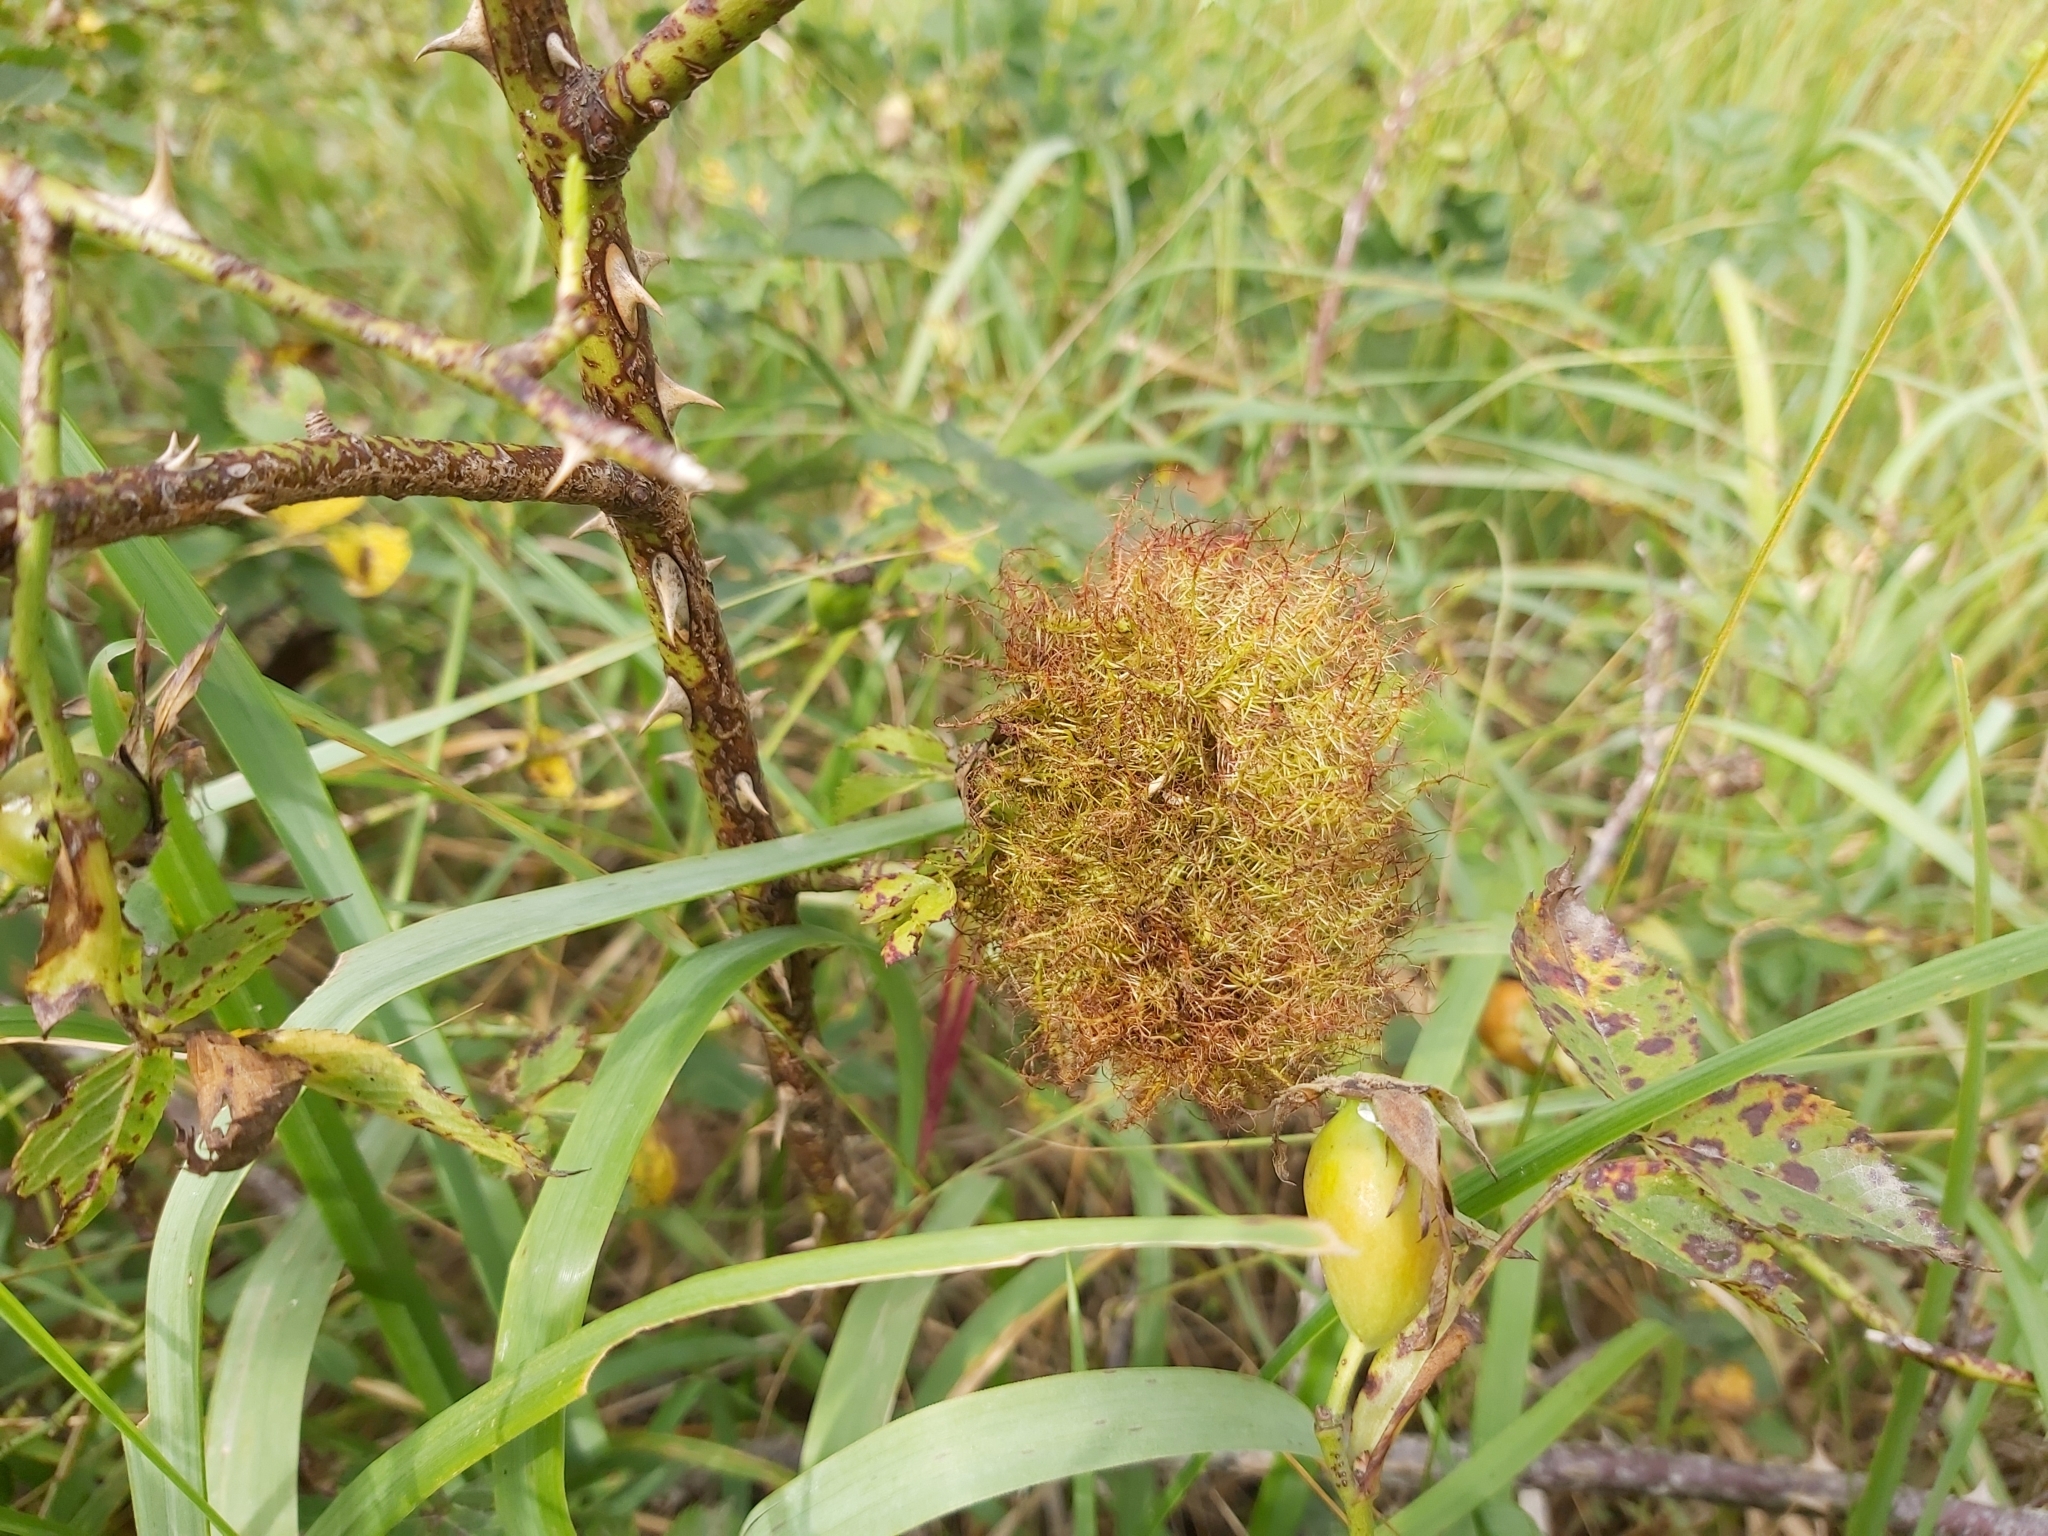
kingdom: Animalia
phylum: Arthropoda
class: Insecta
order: Hymenoptera
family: Cynipidae
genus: Diplolepis
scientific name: Diplolepis rosae
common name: Bedeguar gall
